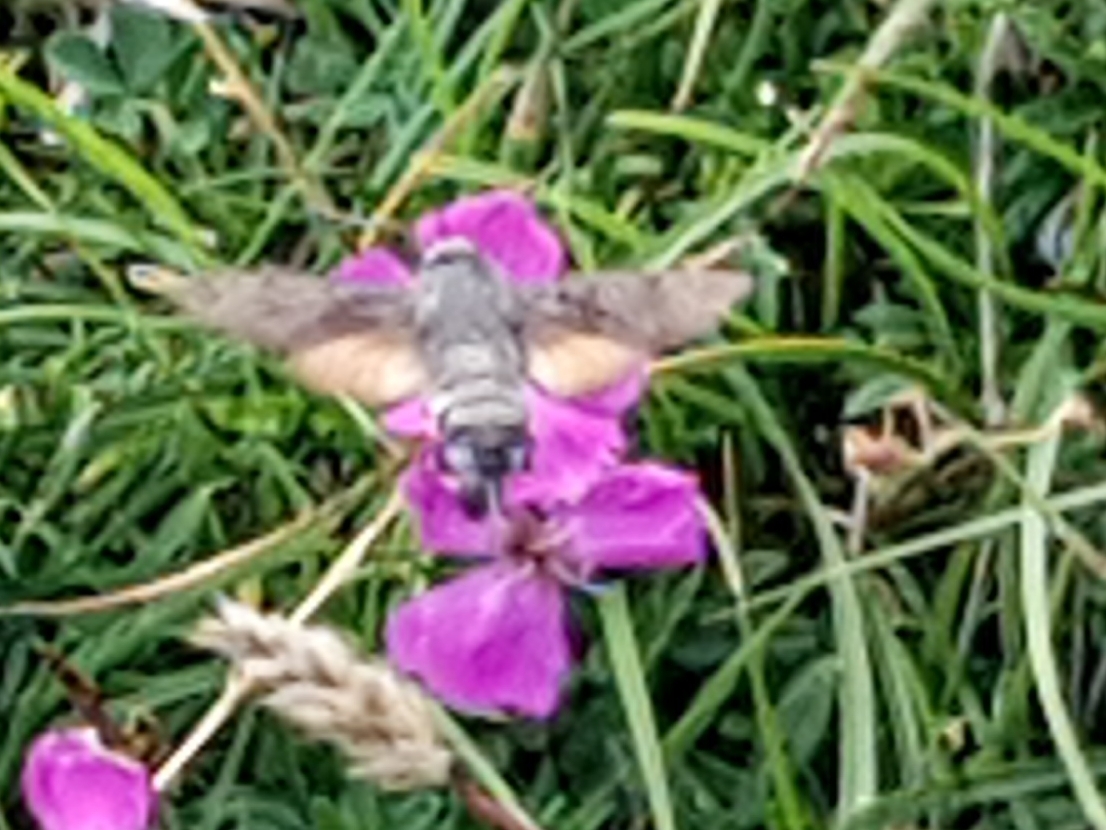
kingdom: Animalia
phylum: Arthropoda
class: Insecta
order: Lepidoptera
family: Sphingidae
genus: Macroglossum
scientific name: Macroglossum stellatarum
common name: Humming-bird hawk-moth
